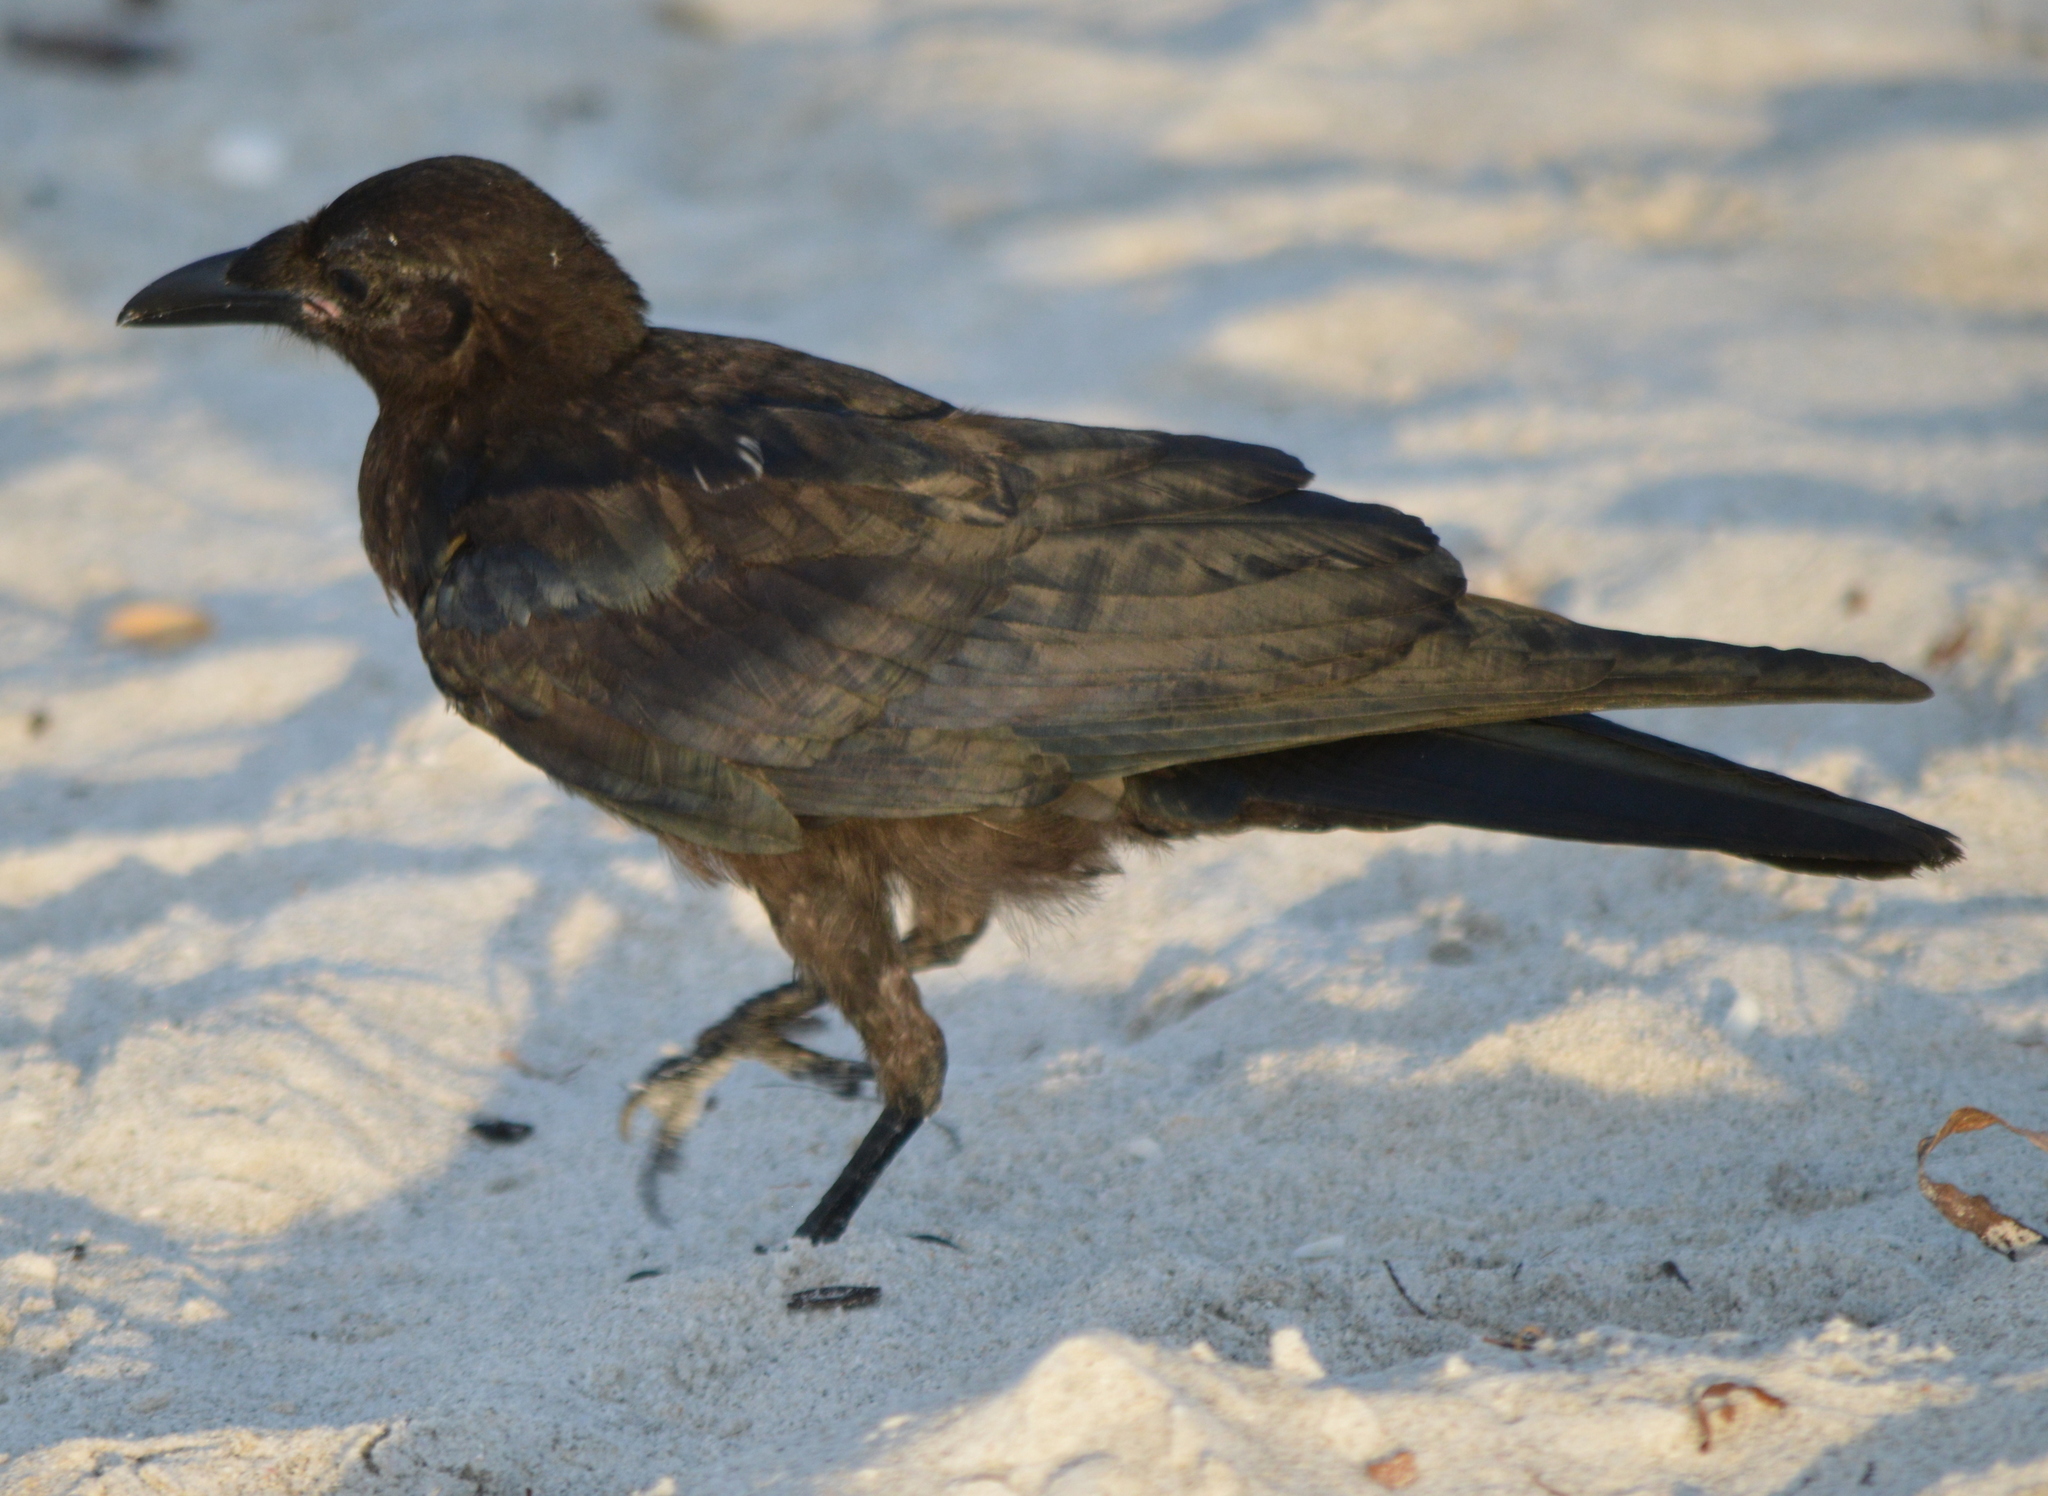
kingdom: Animalia
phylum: Chordata
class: Aves
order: Passeriformes
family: Corvidae
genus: Corvus
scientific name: Corvus ossifragus
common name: Fish crow
